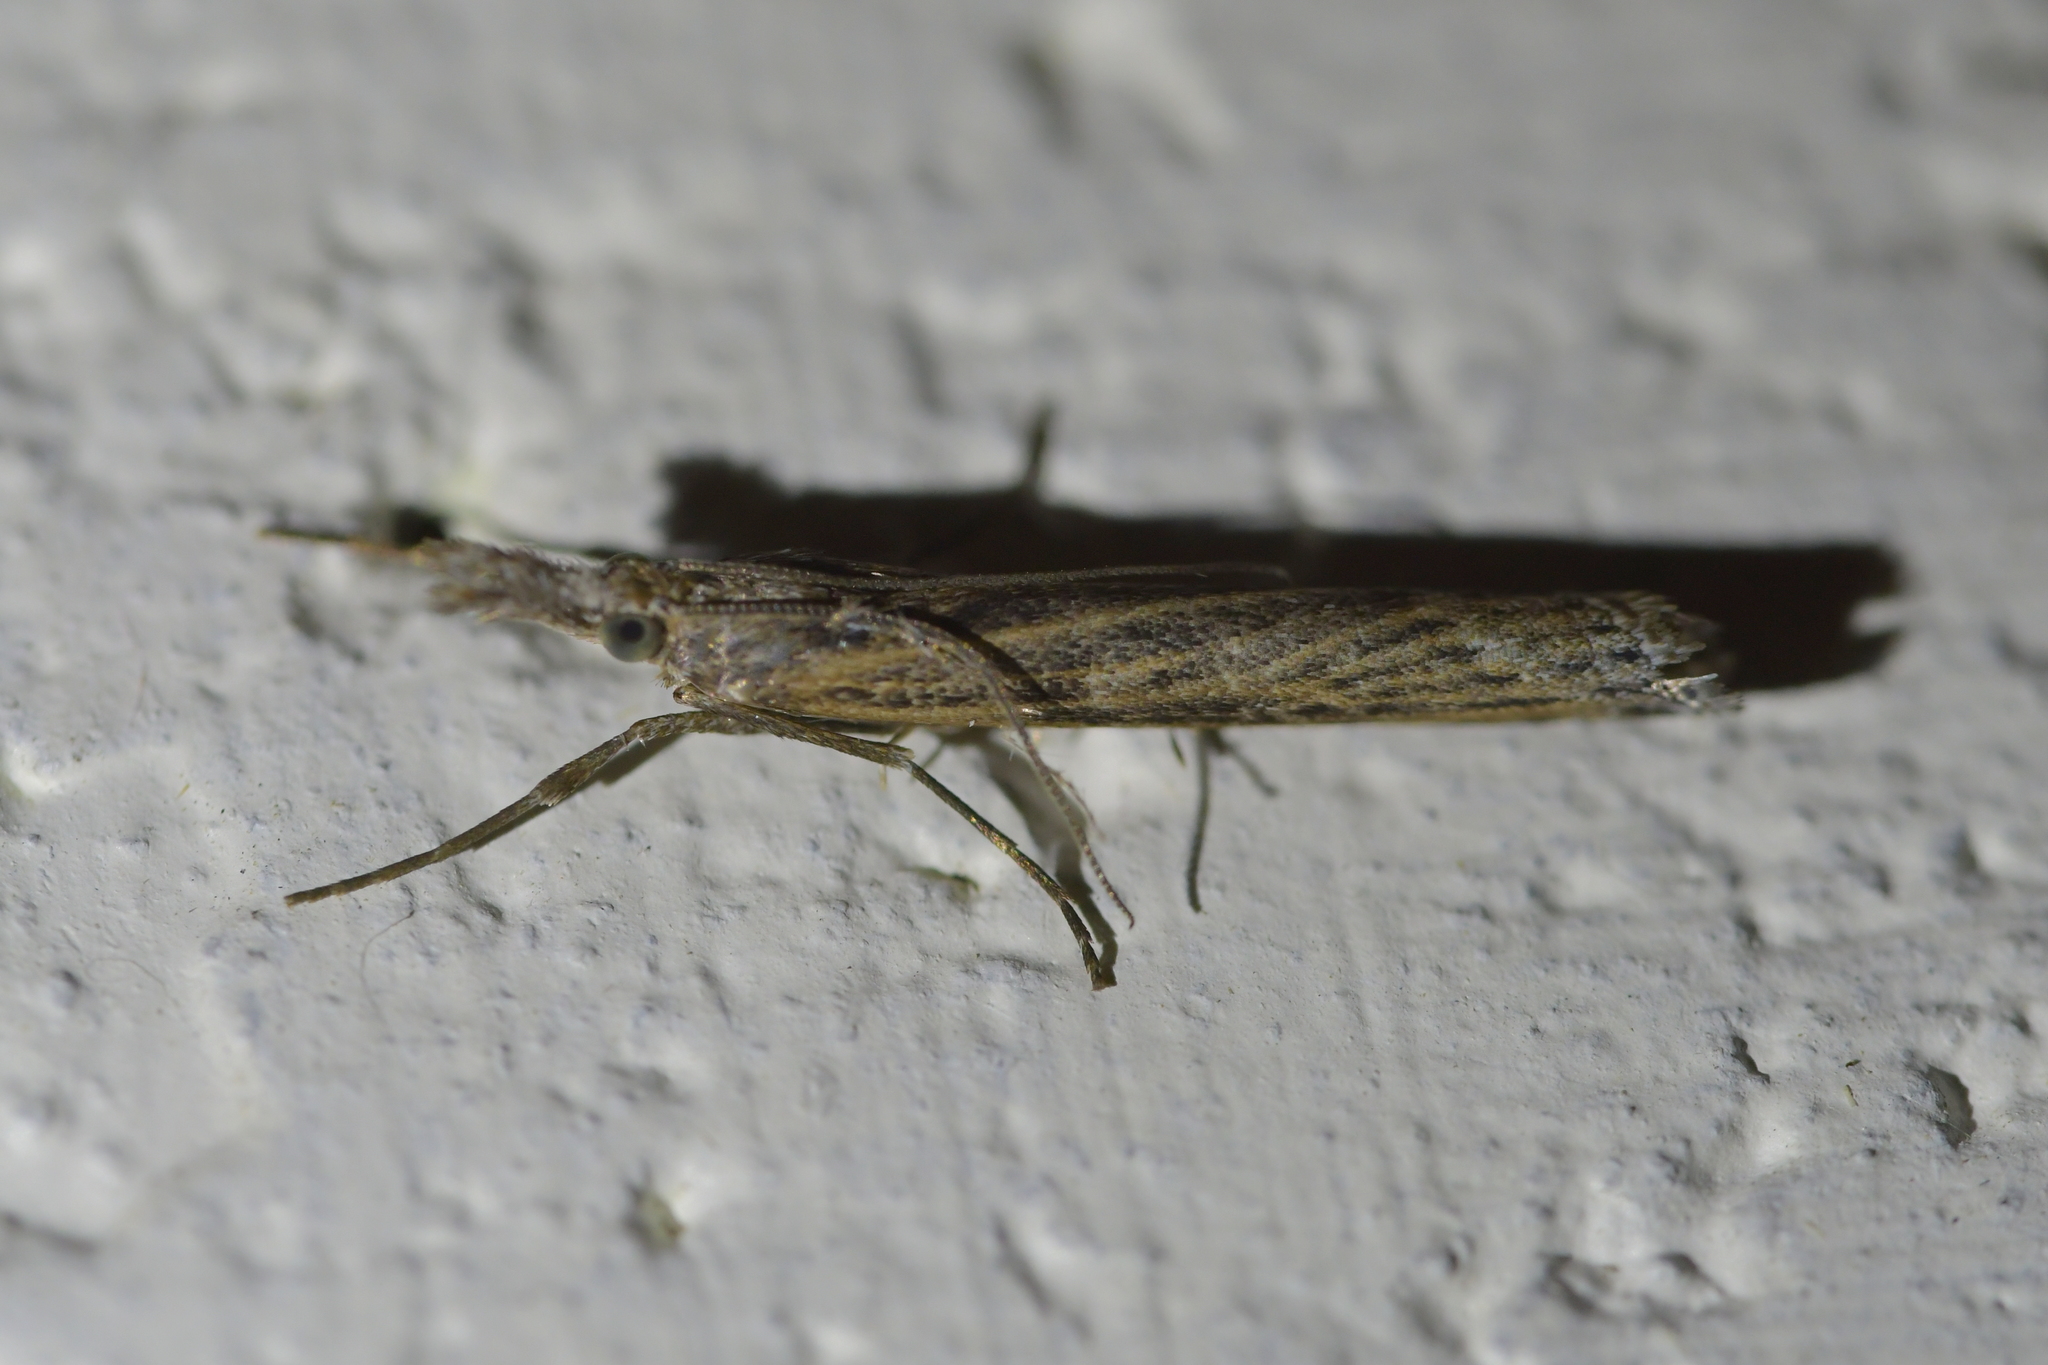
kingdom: Animalia
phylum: Arthropoda
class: Insecta
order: Lepidoptera
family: Crambidae
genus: Orocrambus
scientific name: Orocrambus cyclopicus
